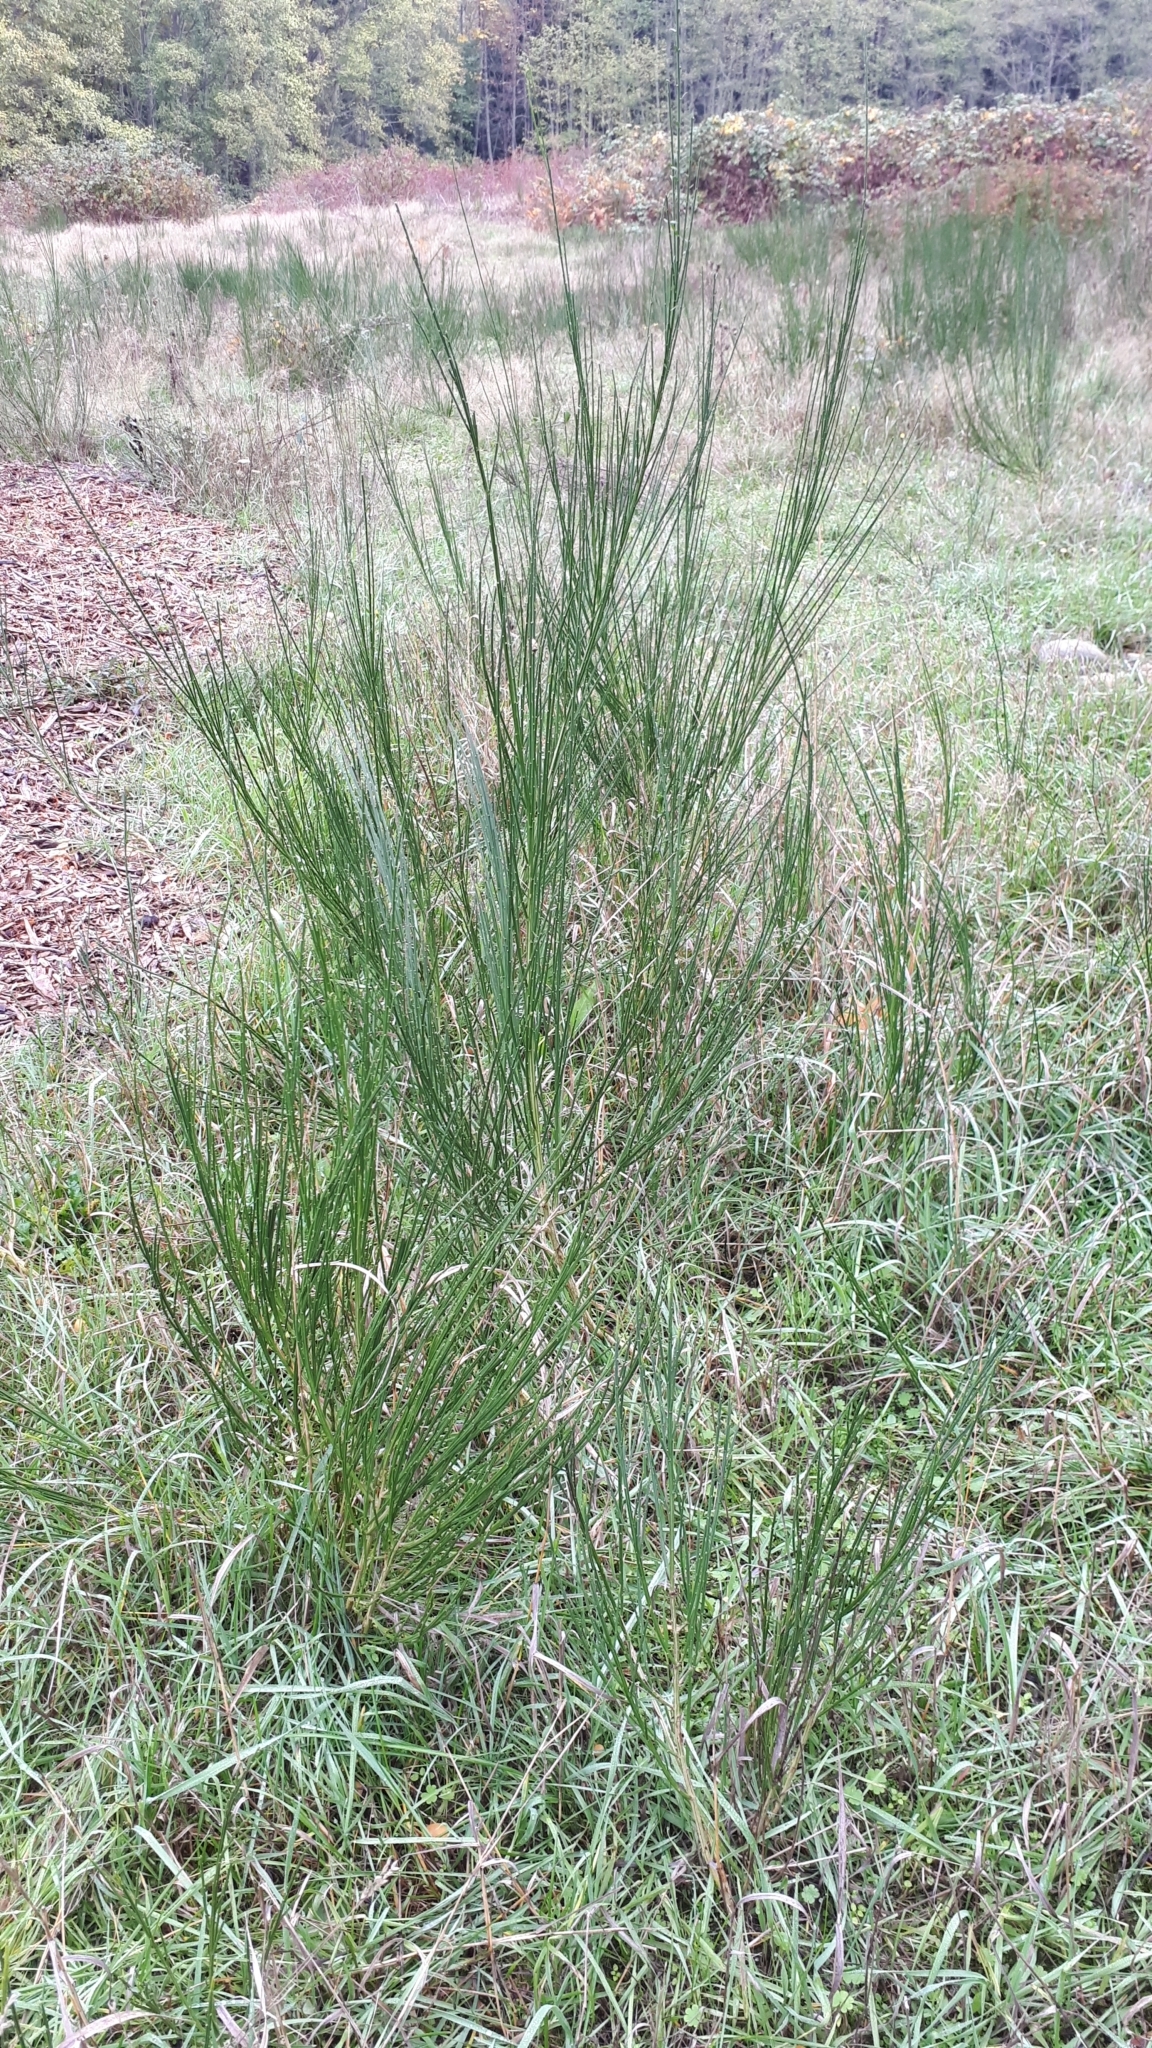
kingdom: Plantae
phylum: Tracheophyta
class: Magnoliopsida
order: Fabales
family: Fabaceae
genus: Cytisus
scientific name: Cytisus scoparius
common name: Scotch broom
